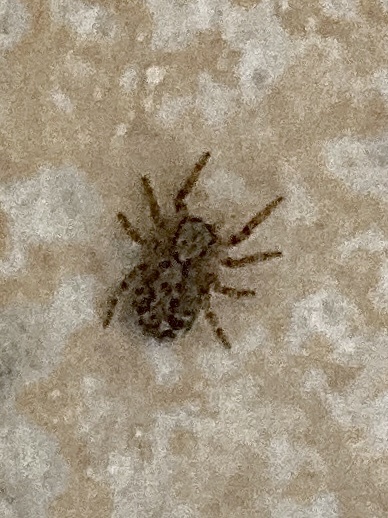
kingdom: Animalia
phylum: Arthropoda
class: Arachnida
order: Araneae
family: Salticidae
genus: Pseudeuophrys
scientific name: Pseudeuophrys
